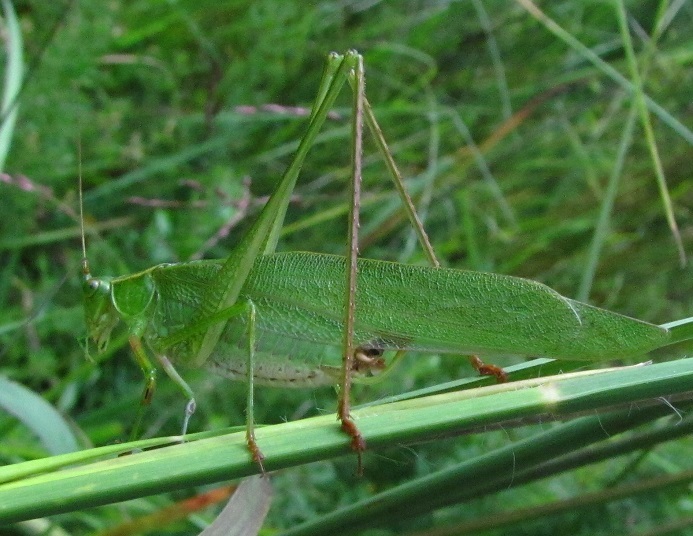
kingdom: Animalia
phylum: Arthropoda
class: Insecta
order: Orthoptera
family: Tettigoniidae
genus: Scudderia
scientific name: Scudderia furcata
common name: Fork-tailed bush katydid
